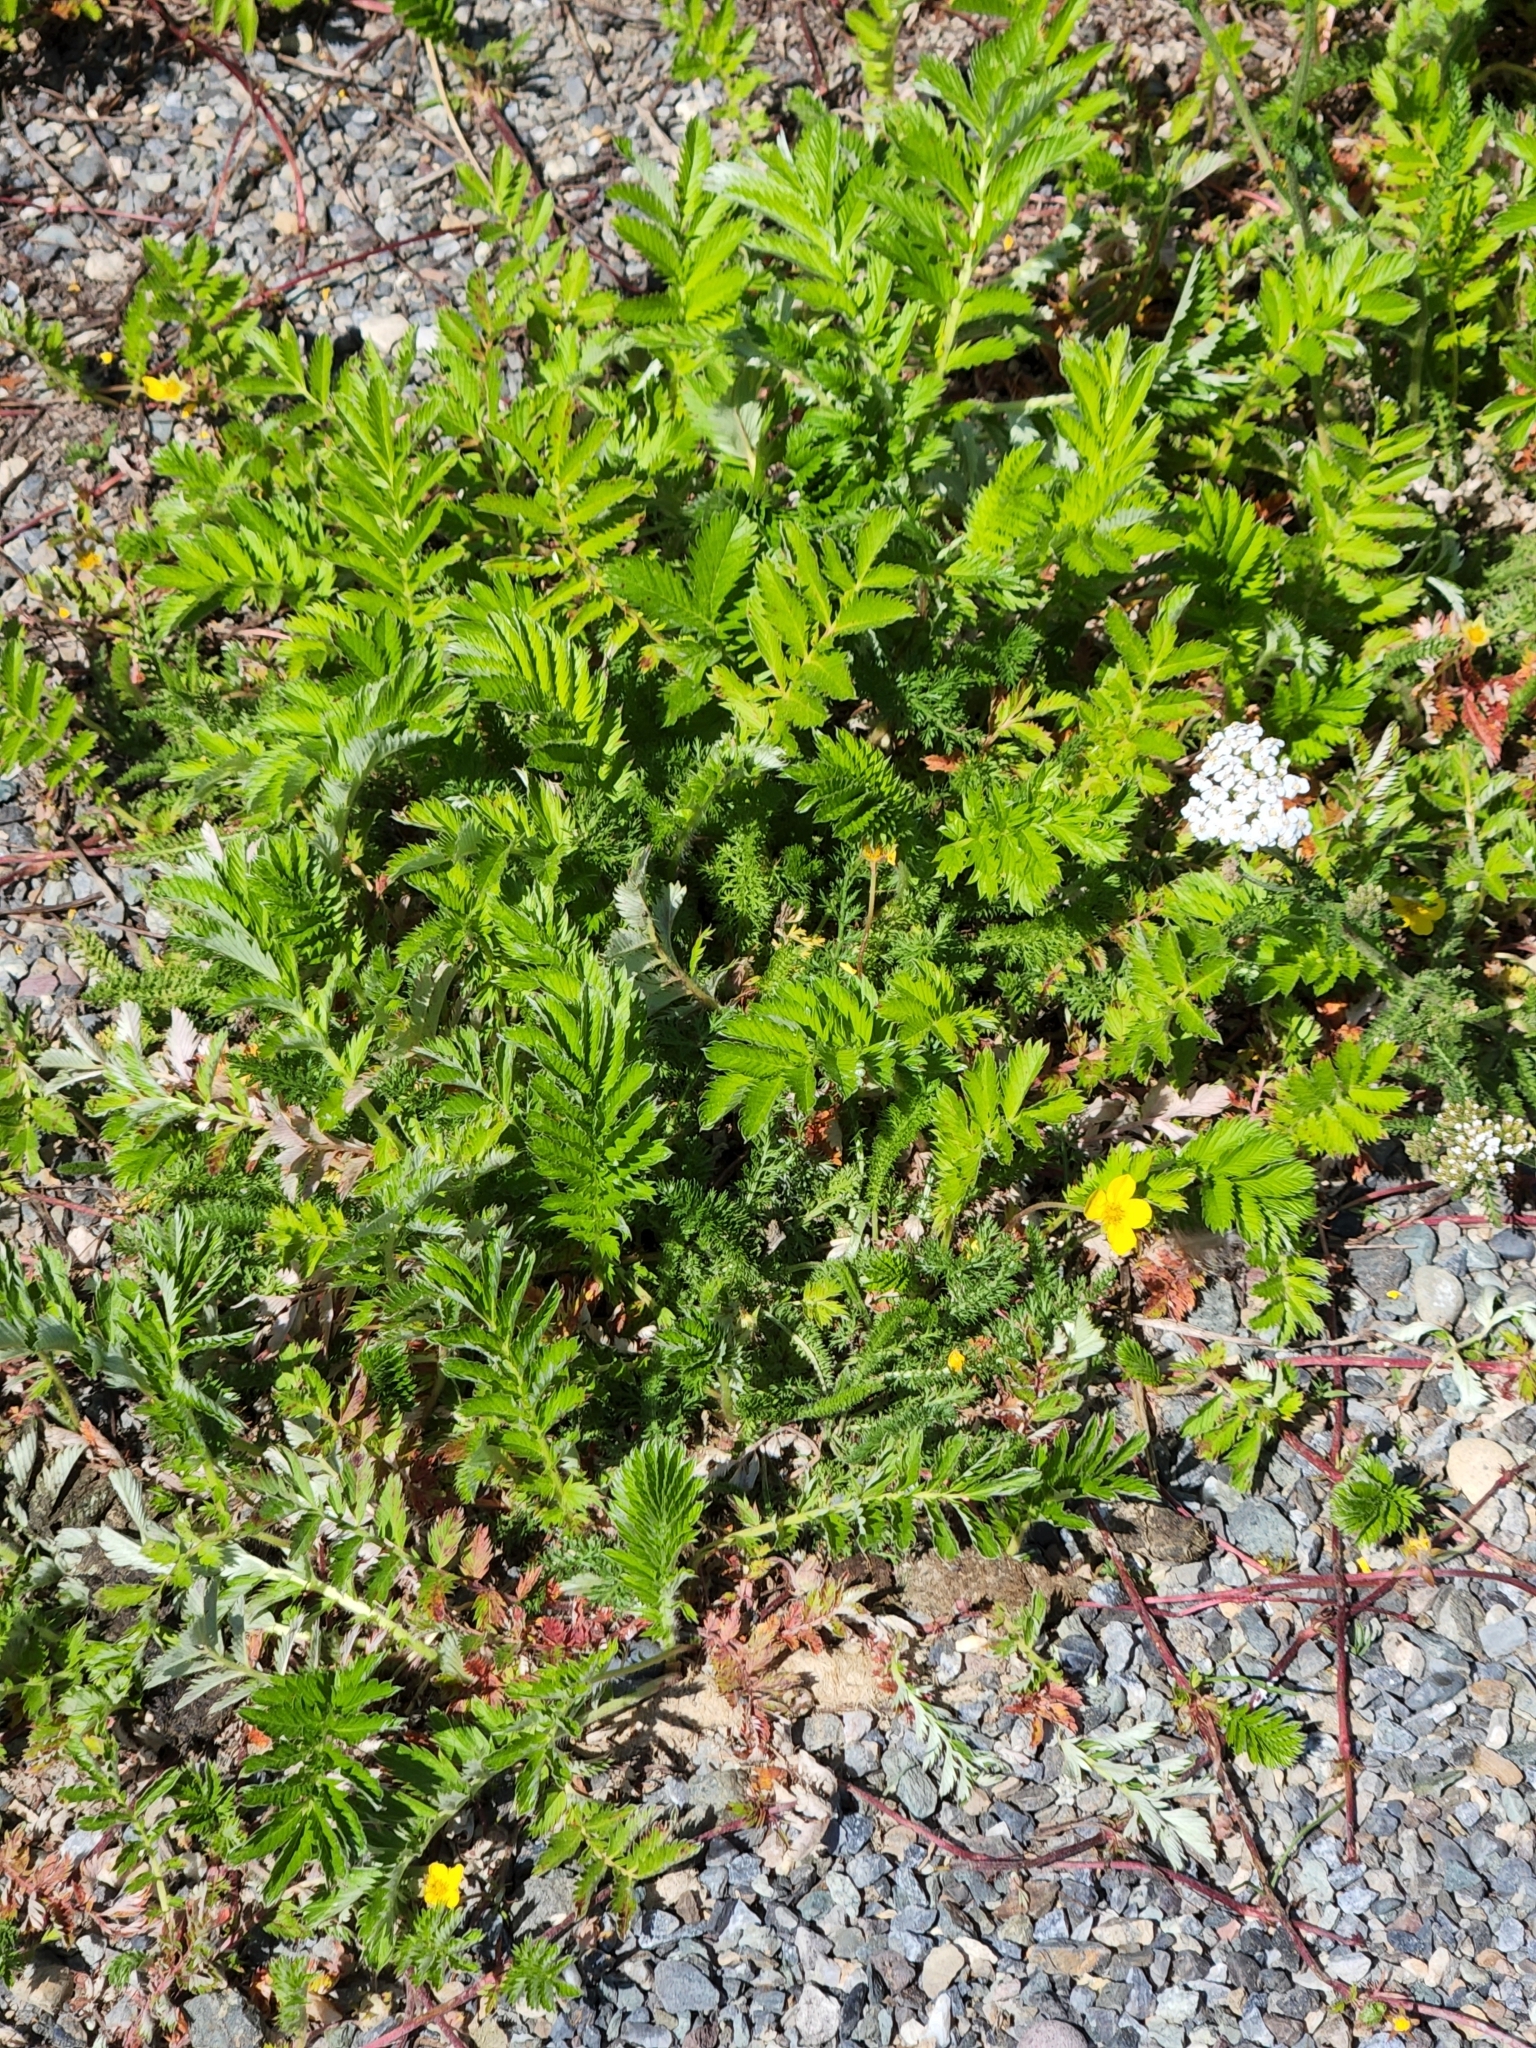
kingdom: Plantae
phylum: Tracheophyta
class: Magnoliopsida
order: Rosales
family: Rosaceae
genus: Argentina
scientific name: Argentina anserina
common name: Common silverweed
